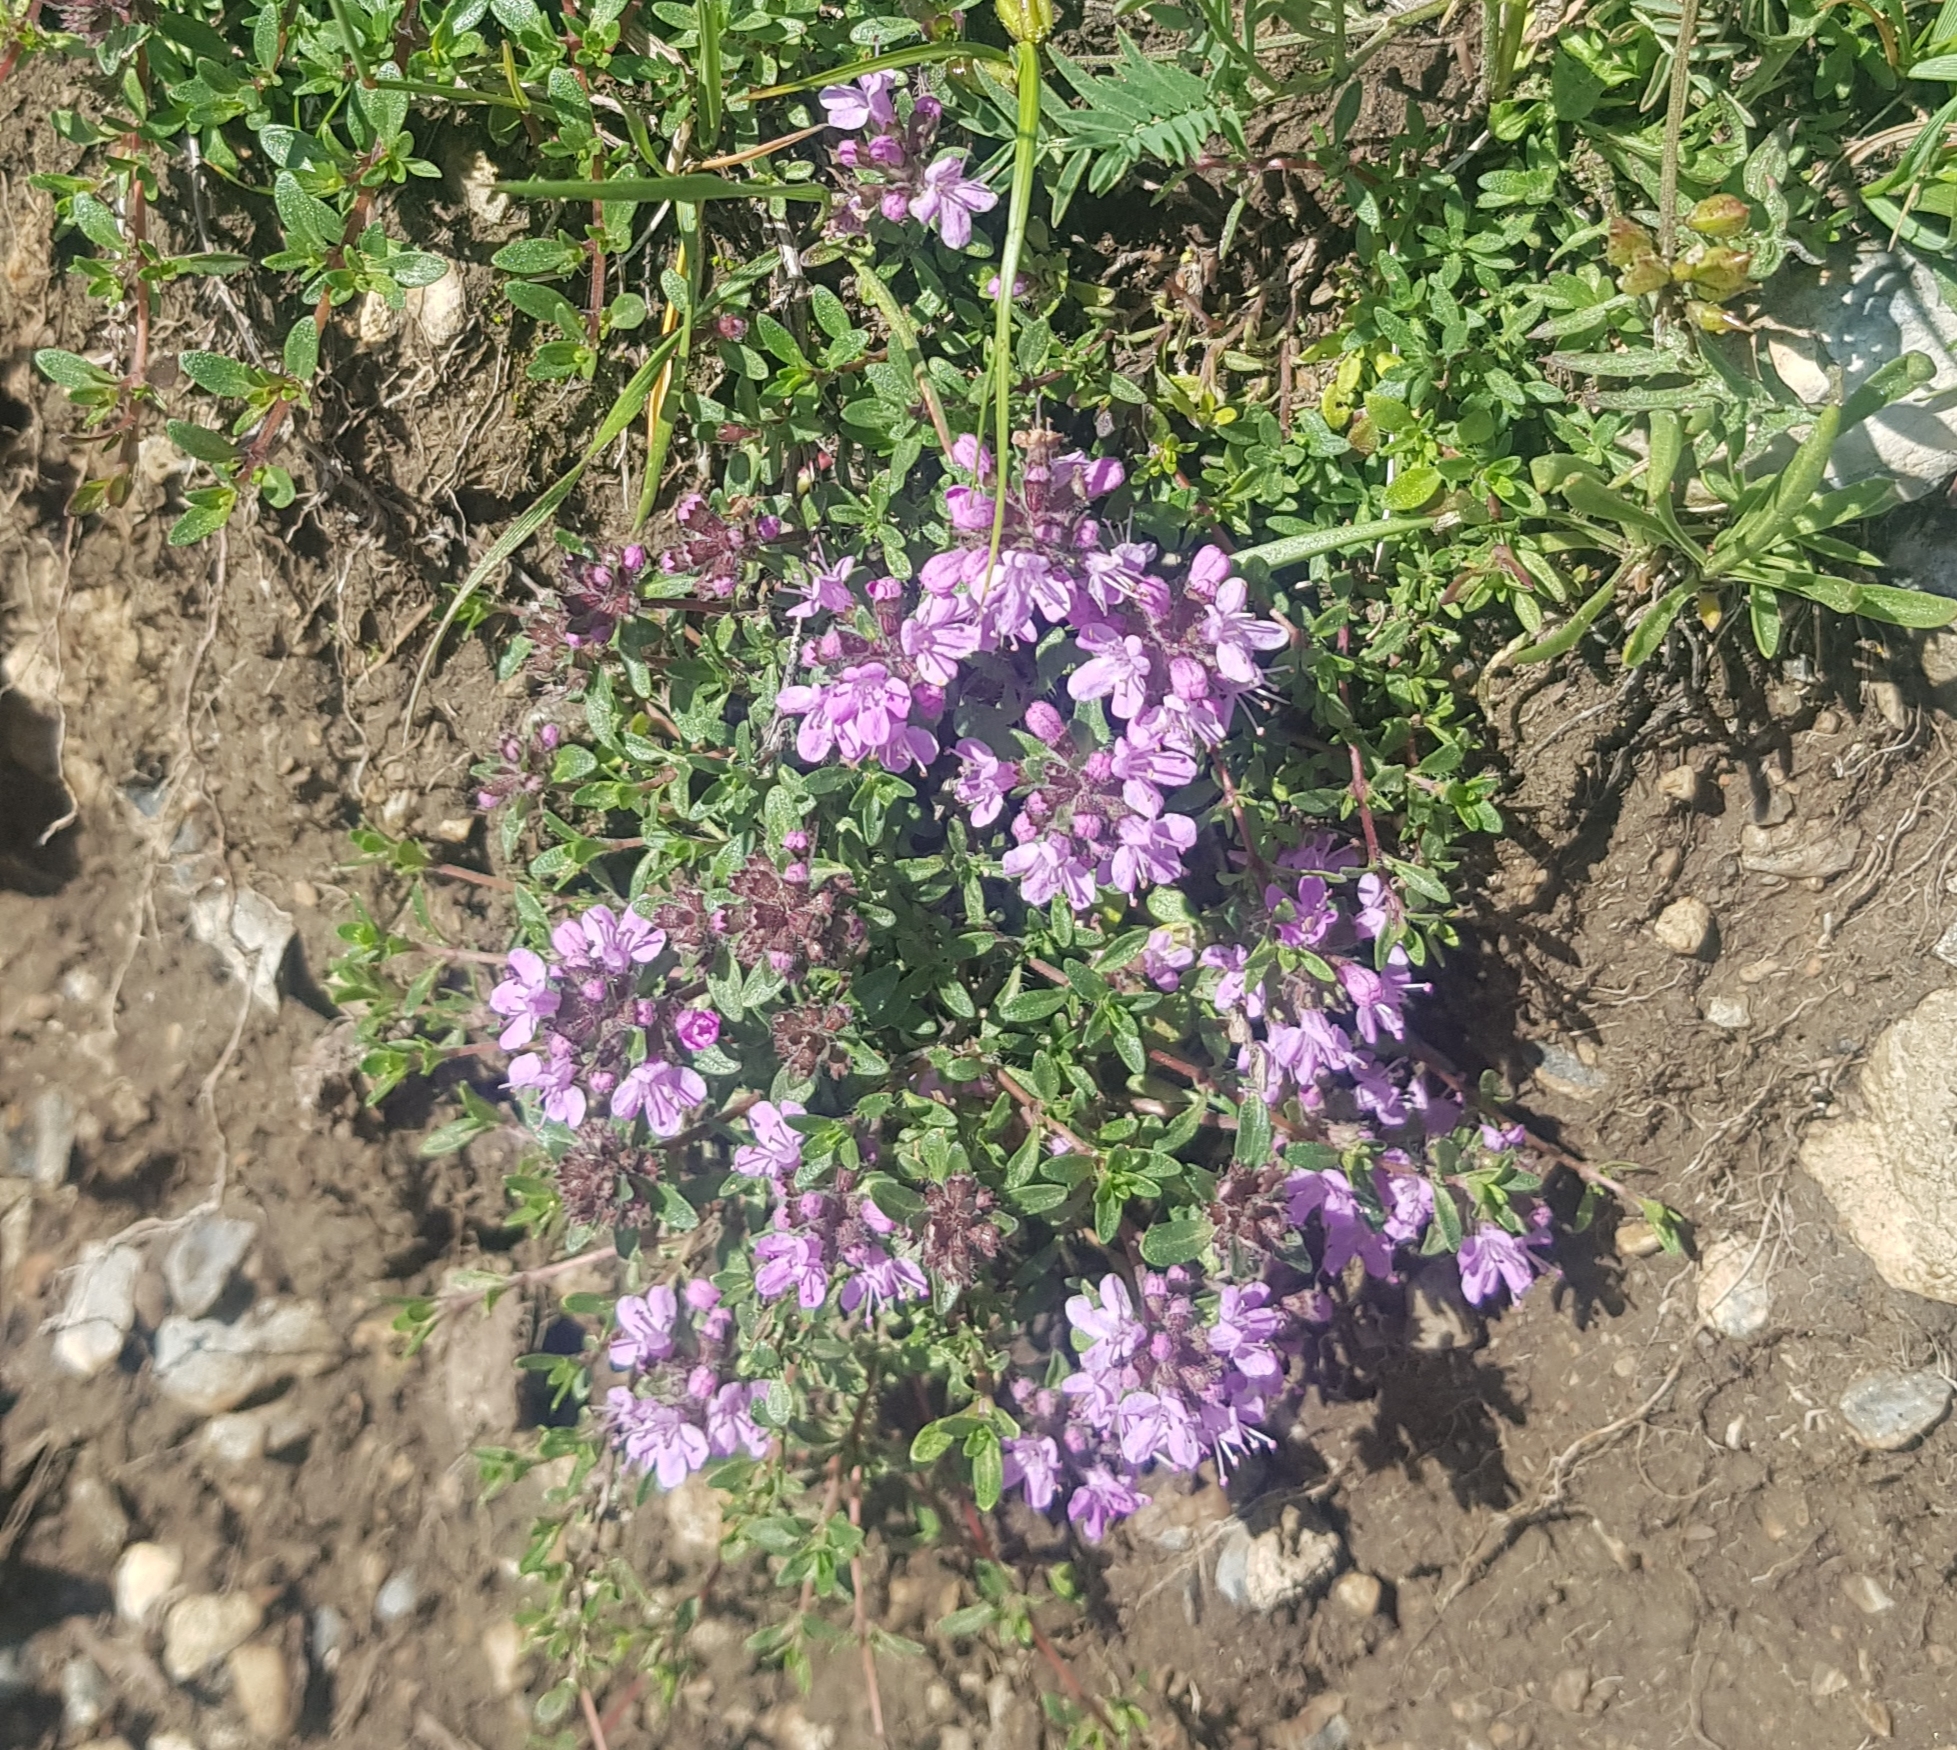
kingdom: Plantae
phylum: Tracheophyta
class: Magnoliopsida
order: Lamiales
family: Lamiaceae
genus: Thymus
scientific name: Thymus mongolicus
